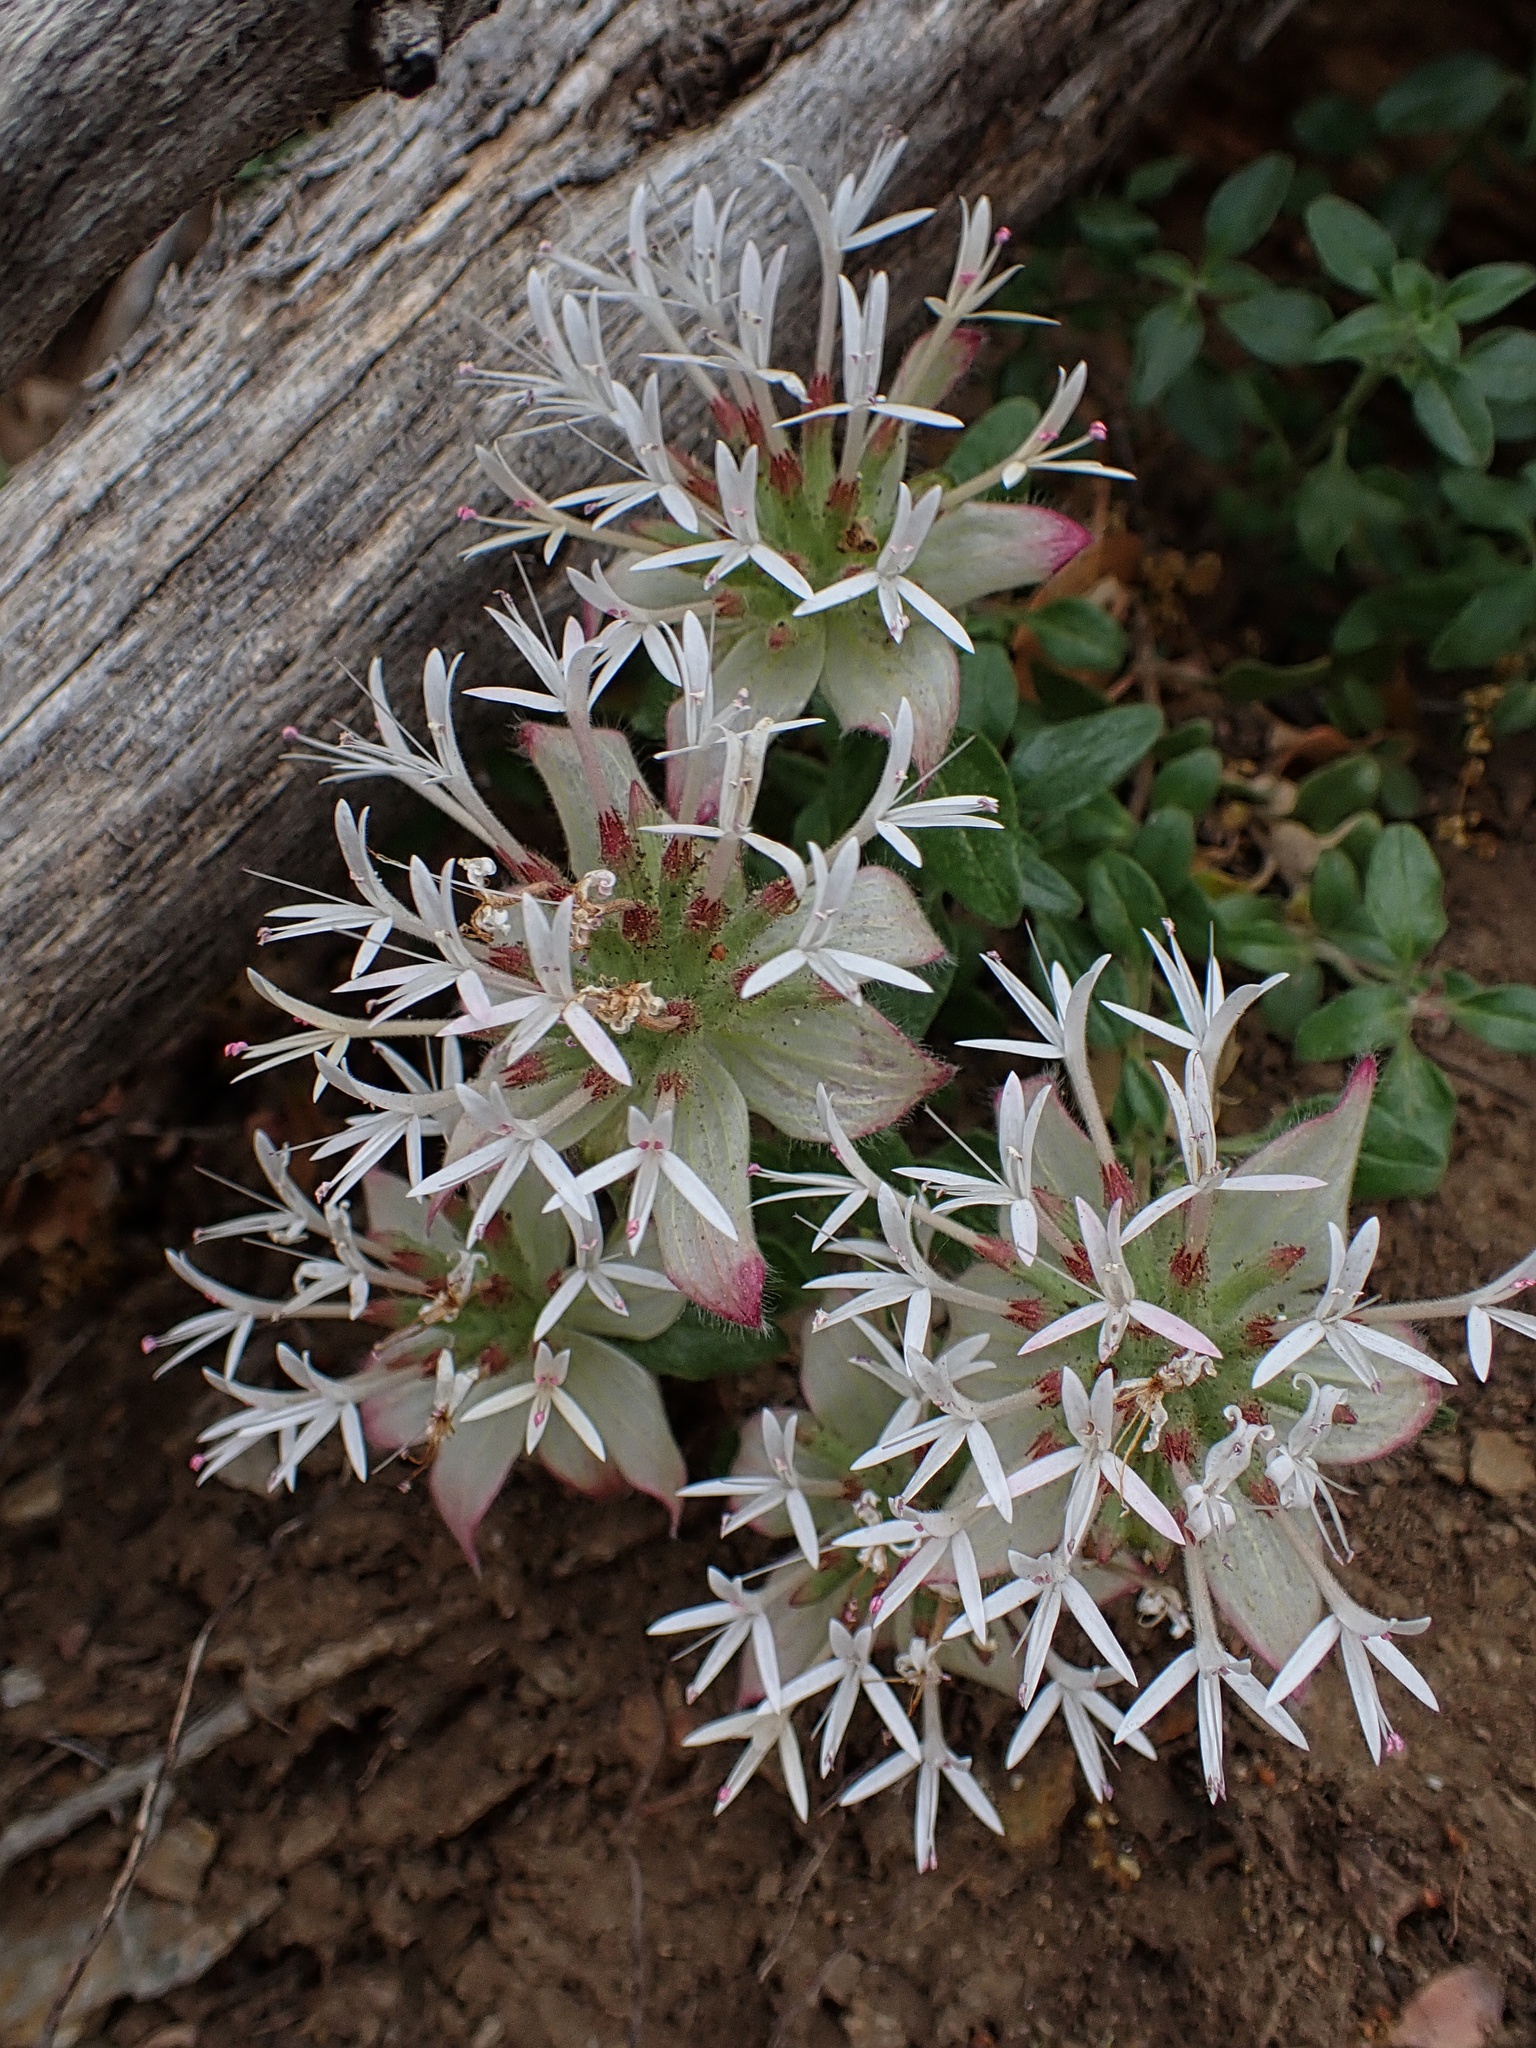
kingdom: Plantae
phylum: Tracheophyta
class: Magnoliopsida
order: Lamiales
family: Lamiaceae
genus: Monardella
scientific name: Monardella nana
